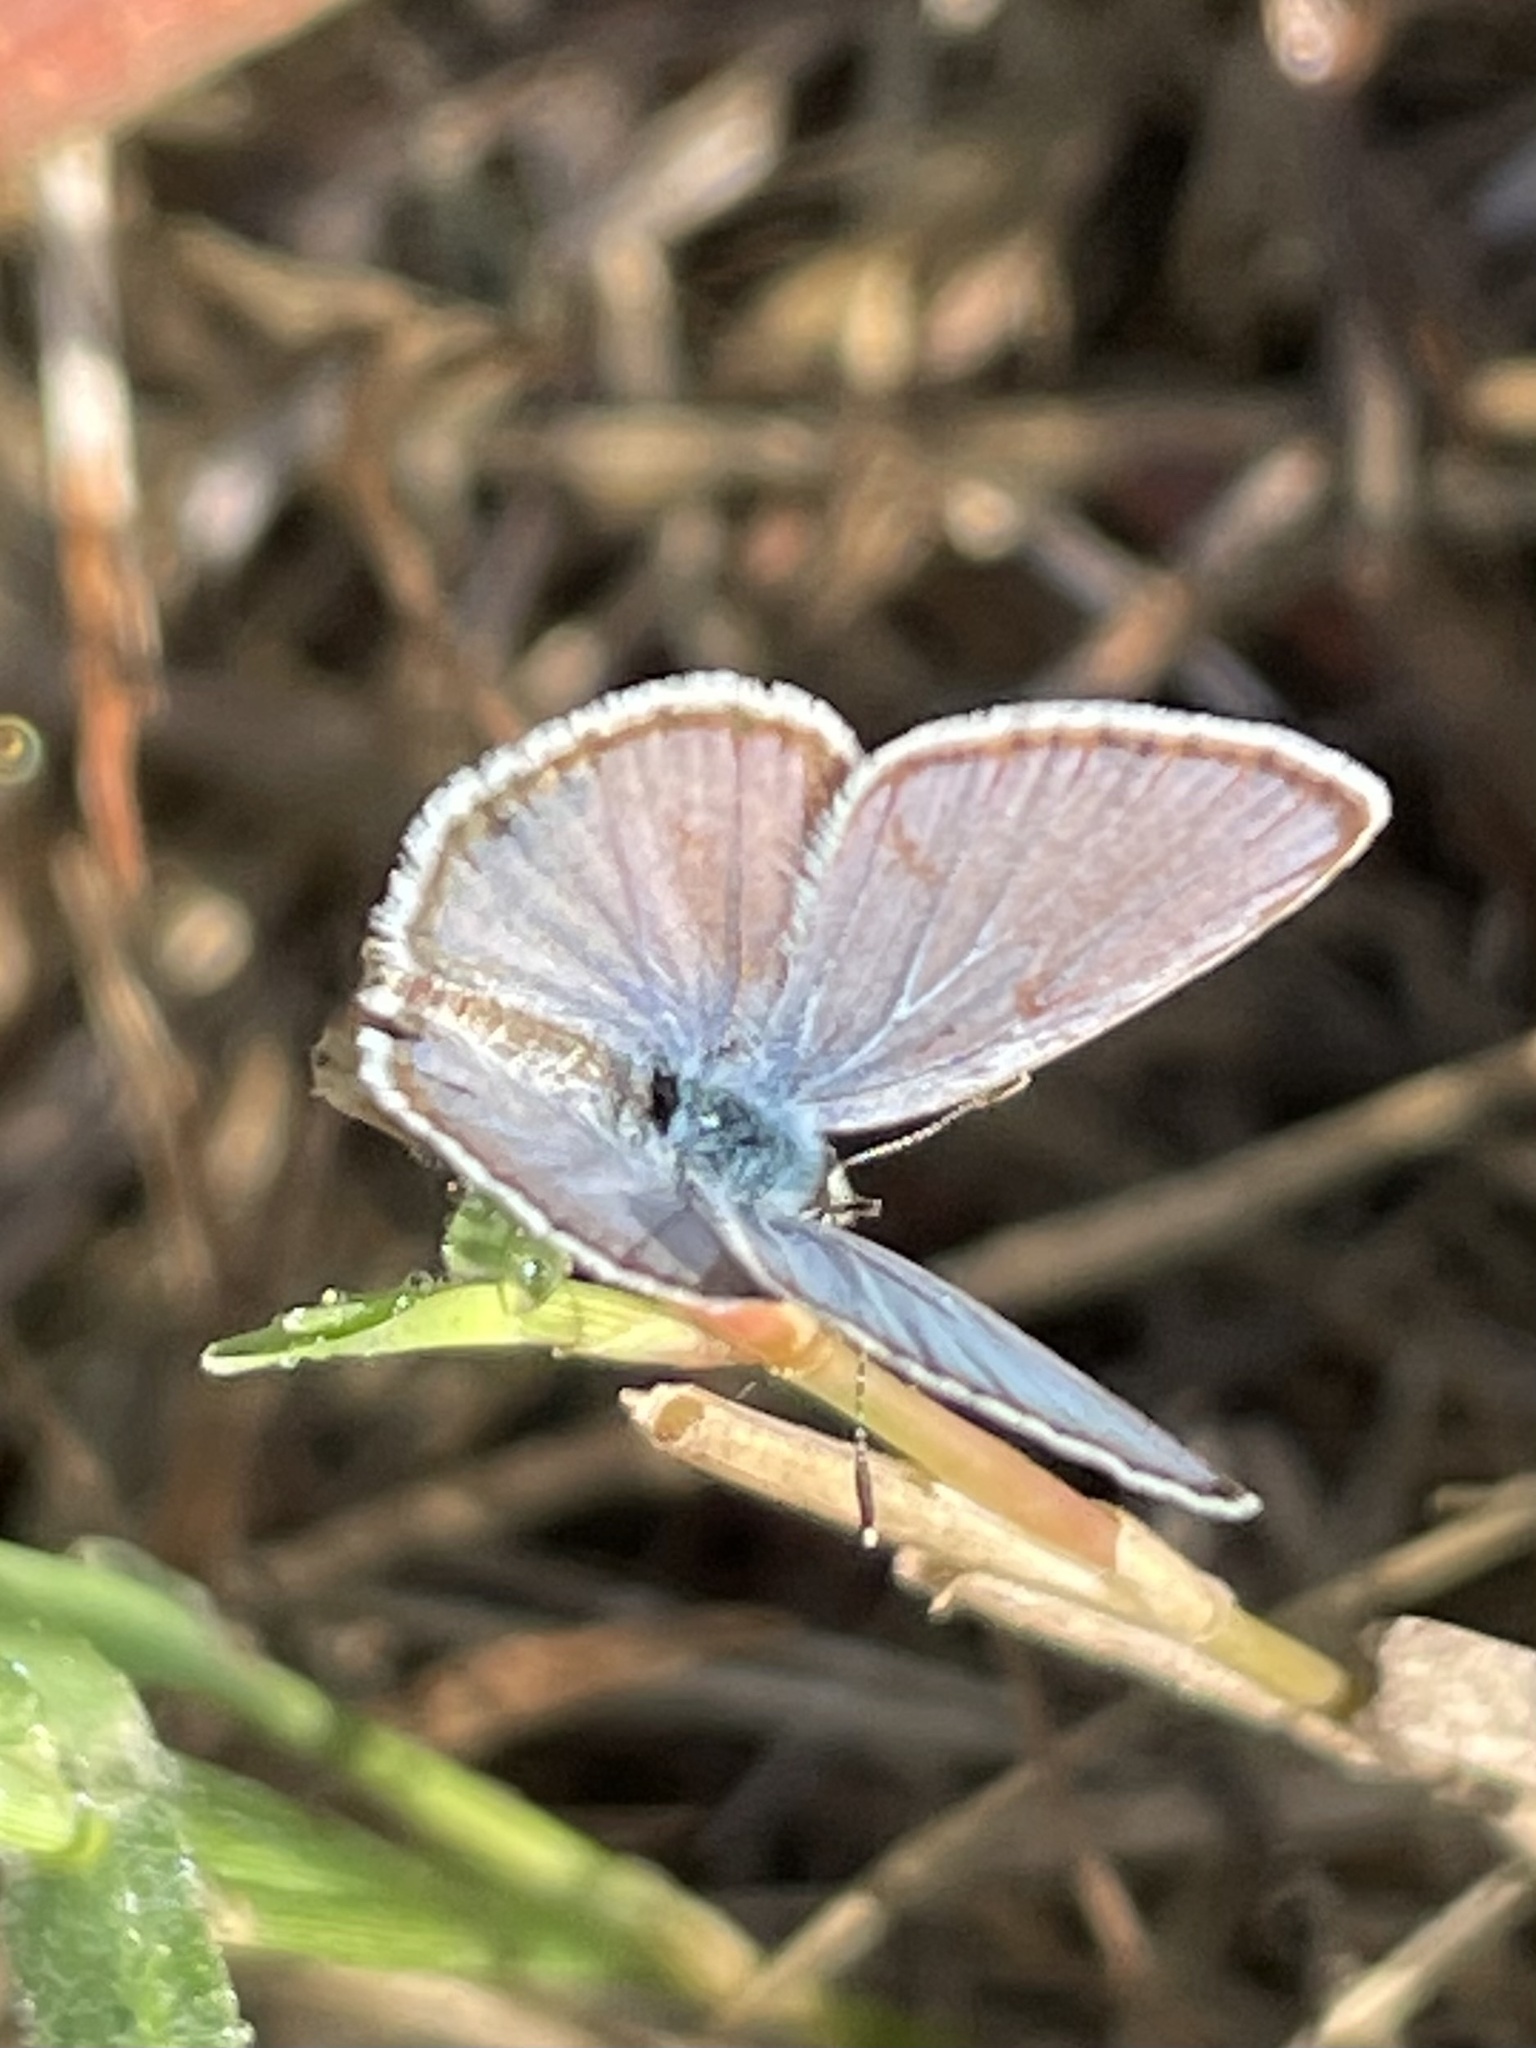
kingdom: Animalia
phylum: Arthropoda
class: Insecta
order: Lepidoptera
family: Lycaenidae
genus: Hemiargus
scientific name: Hemiargus ceraunus
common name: Ceraunus blue
